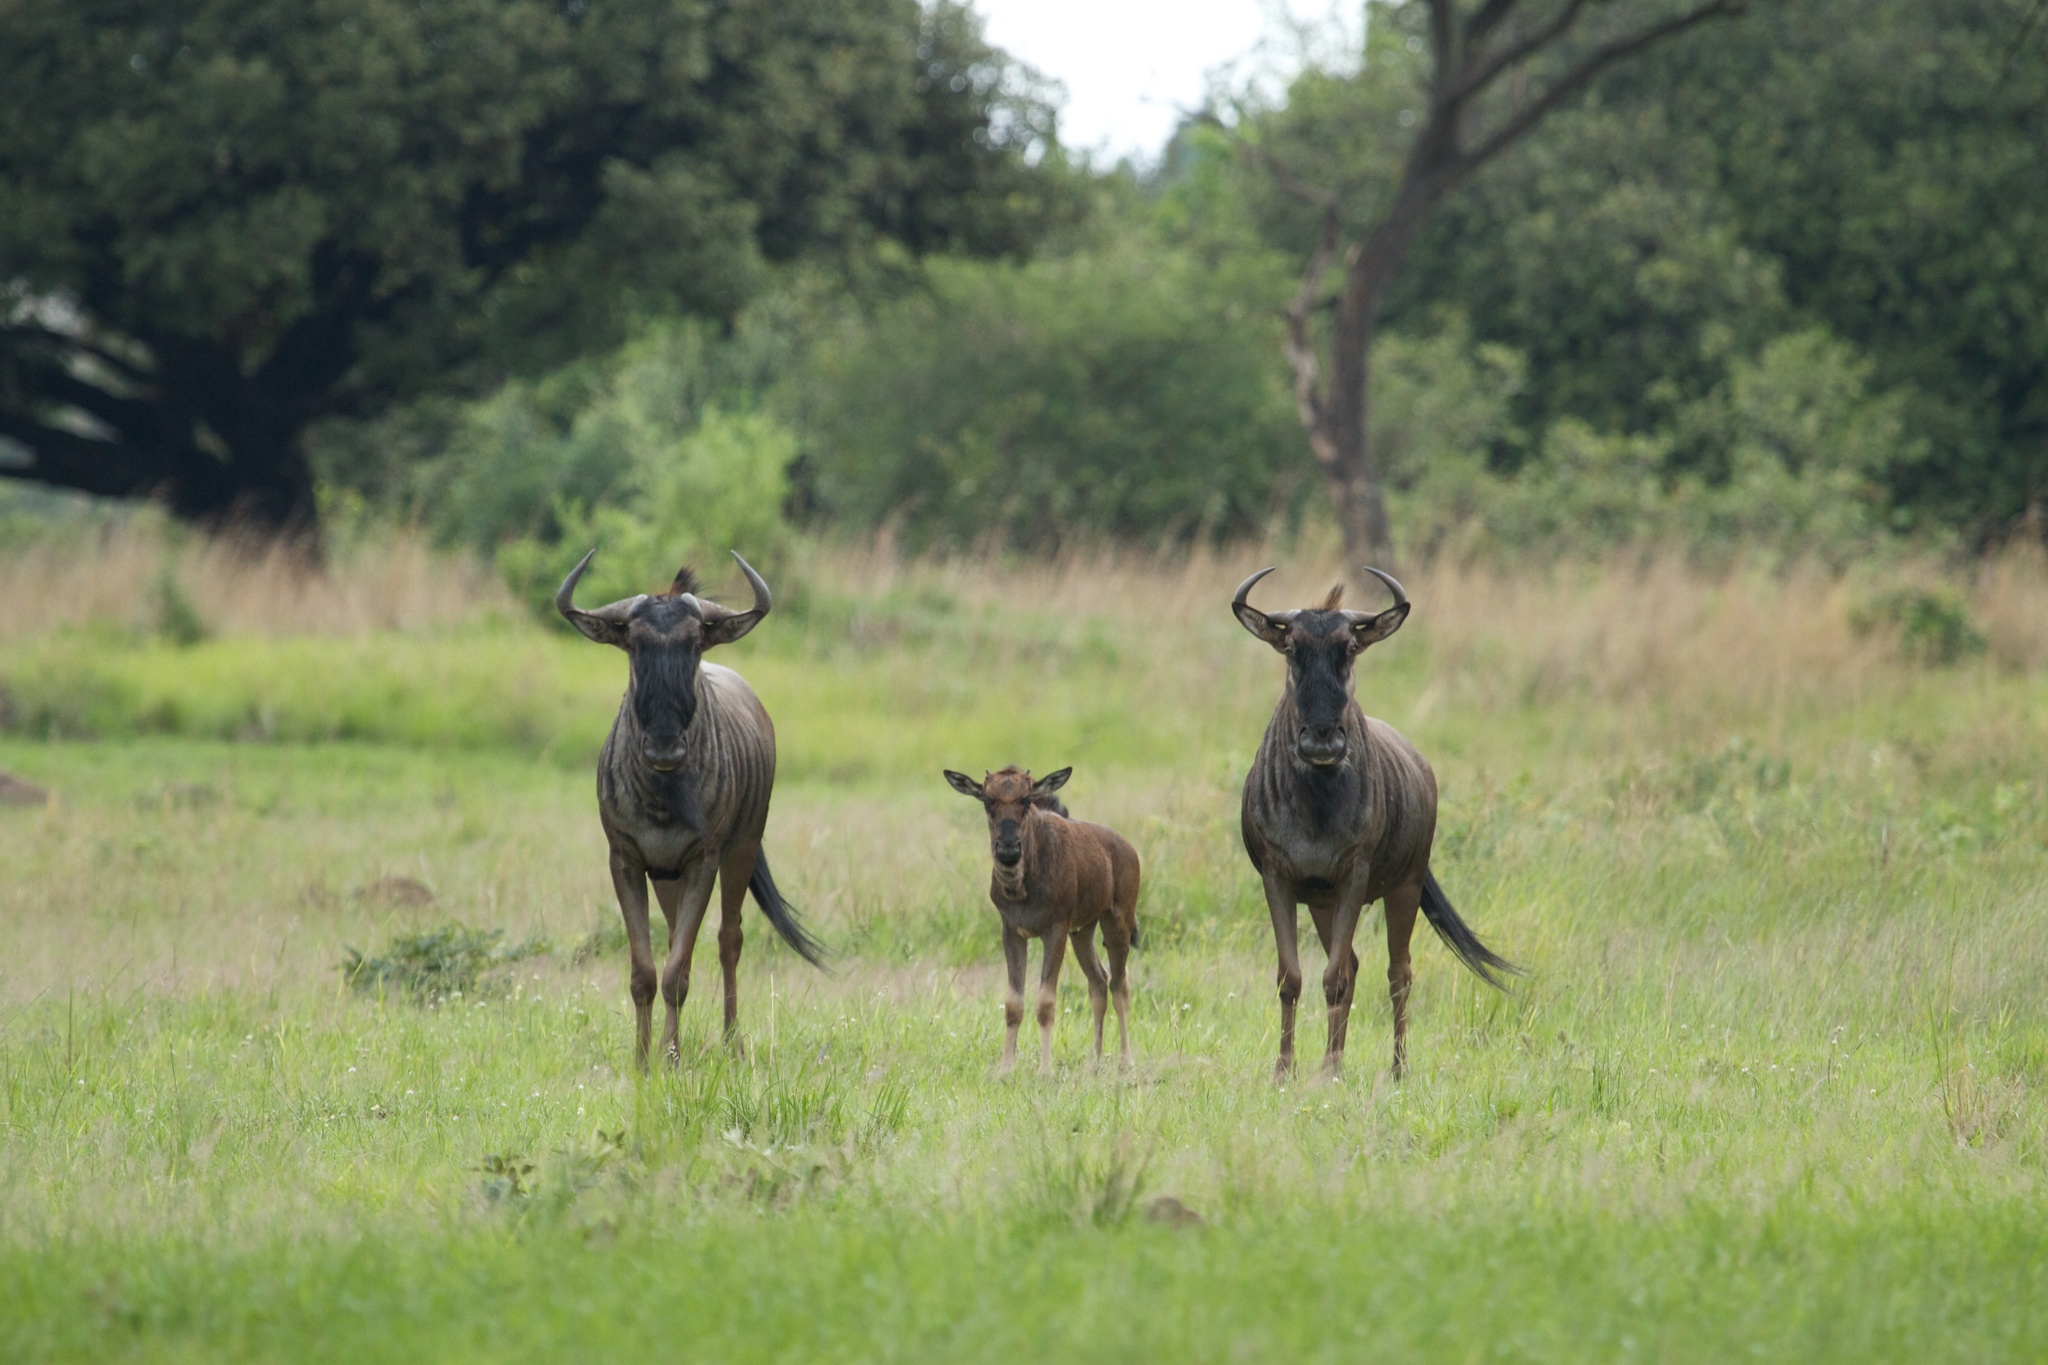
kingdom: Animalia
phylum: Chordata
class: Mammalia
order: Artiodactyla
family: Bovidae
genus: Connochaetes
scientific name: Connochaetes taurinus
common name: Blue wildebeest
